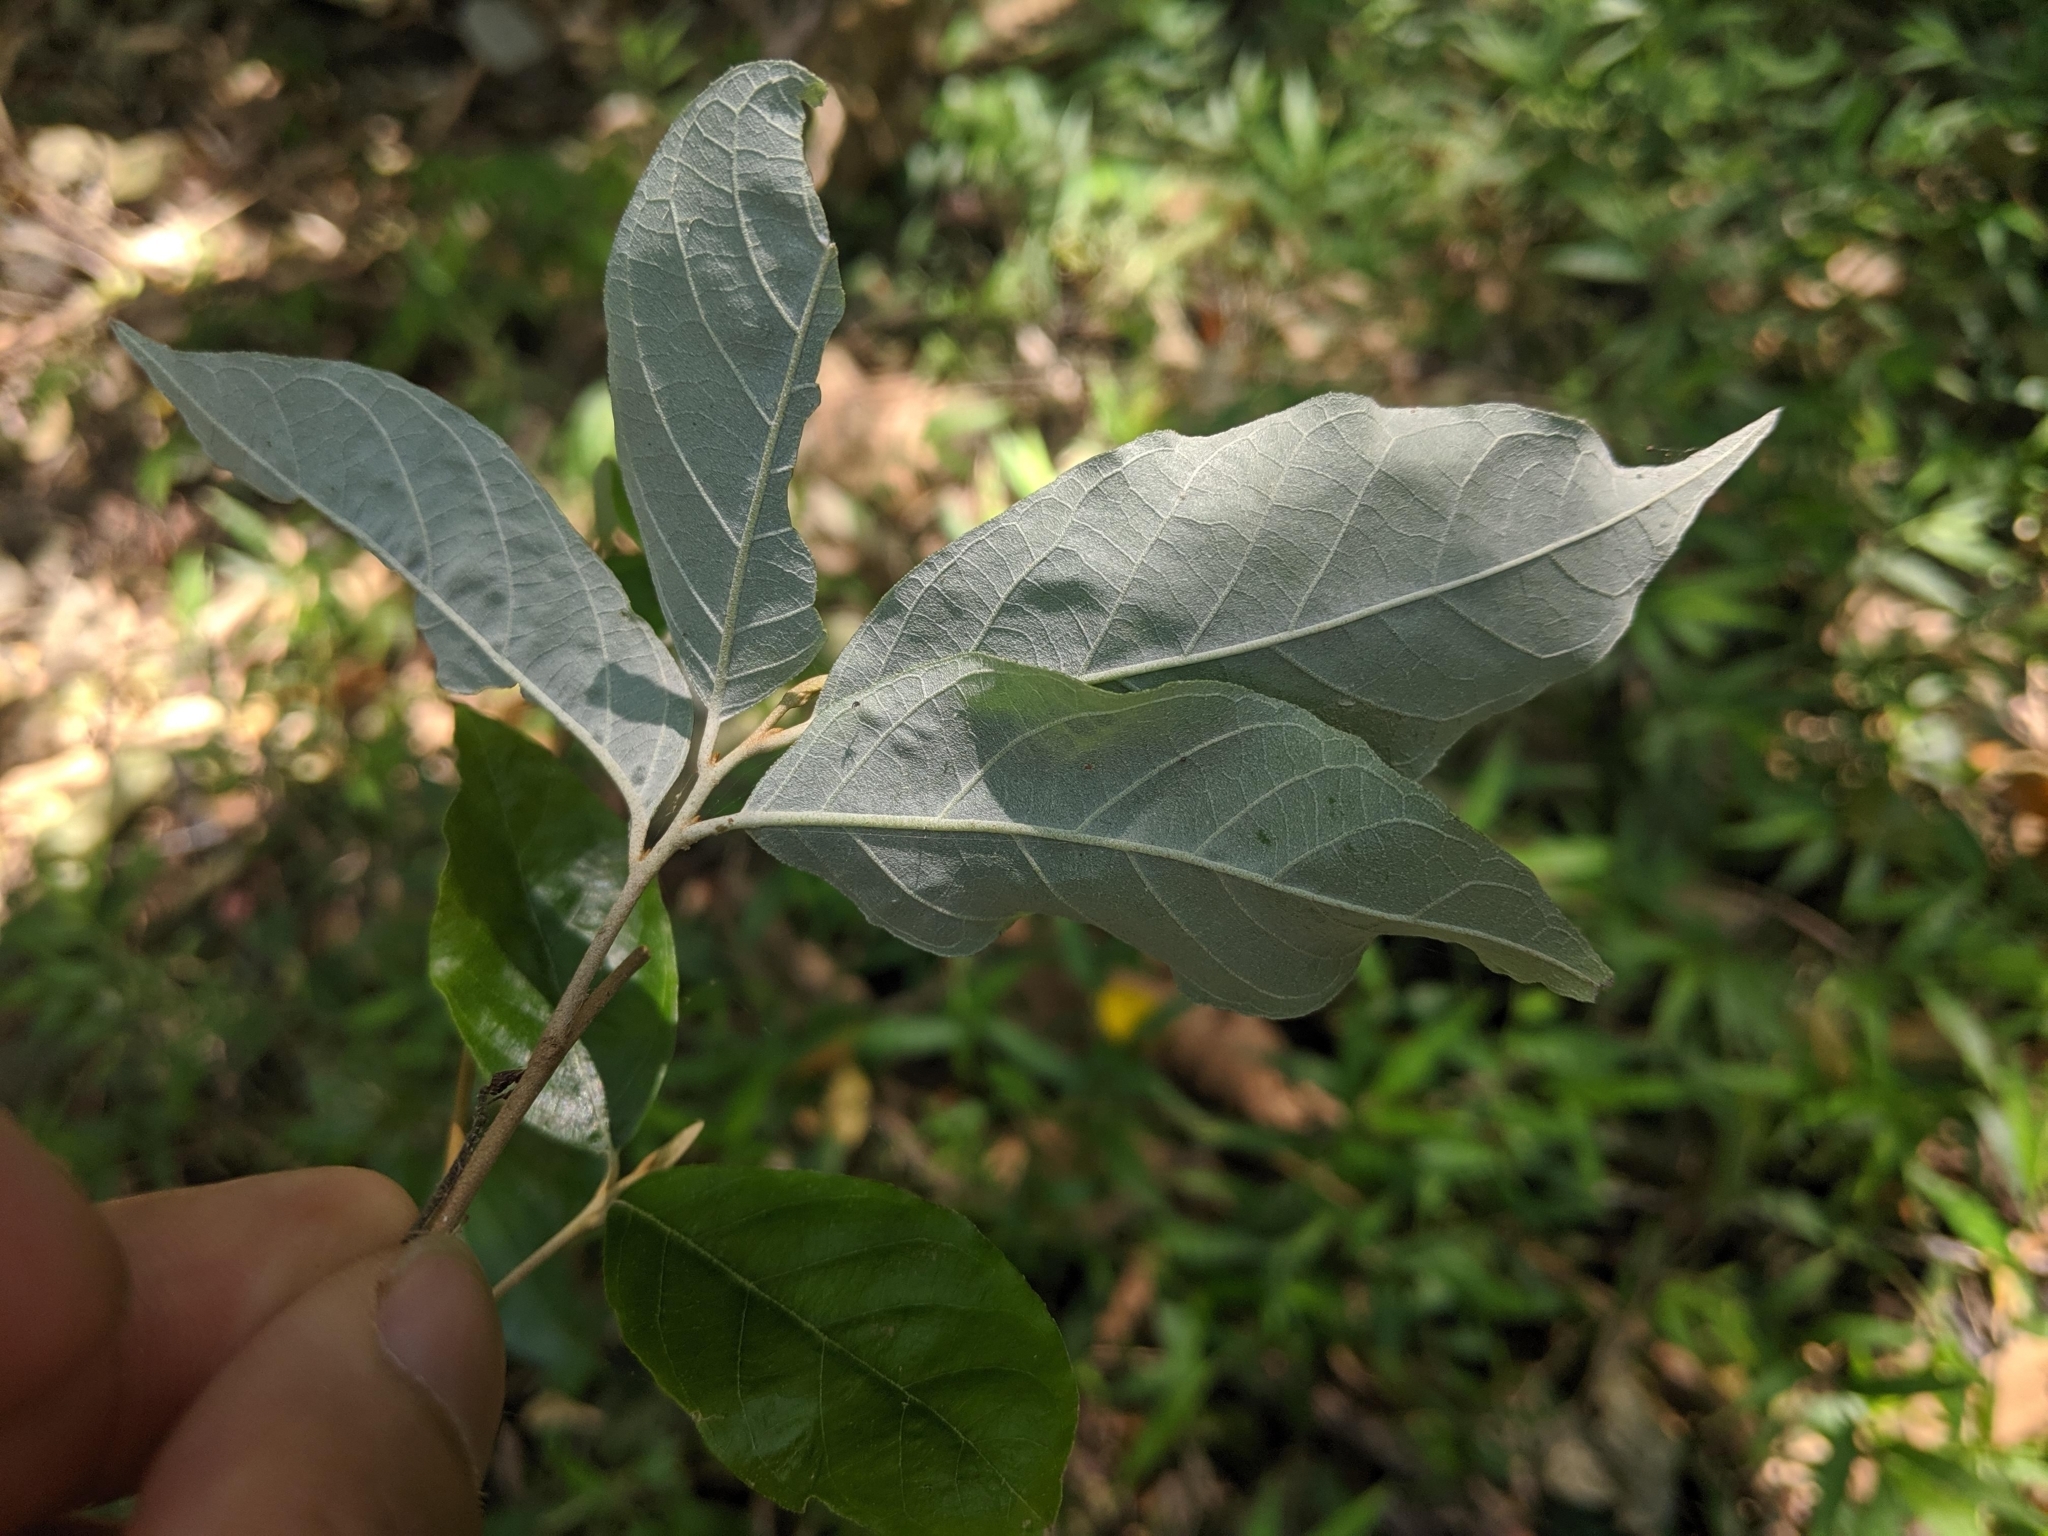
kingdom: Plantae
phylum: Tracheophyta
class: Magnoliopsida
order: Ericales
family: Styracaceae
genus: Styrax
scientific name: Styrax suberifolius
